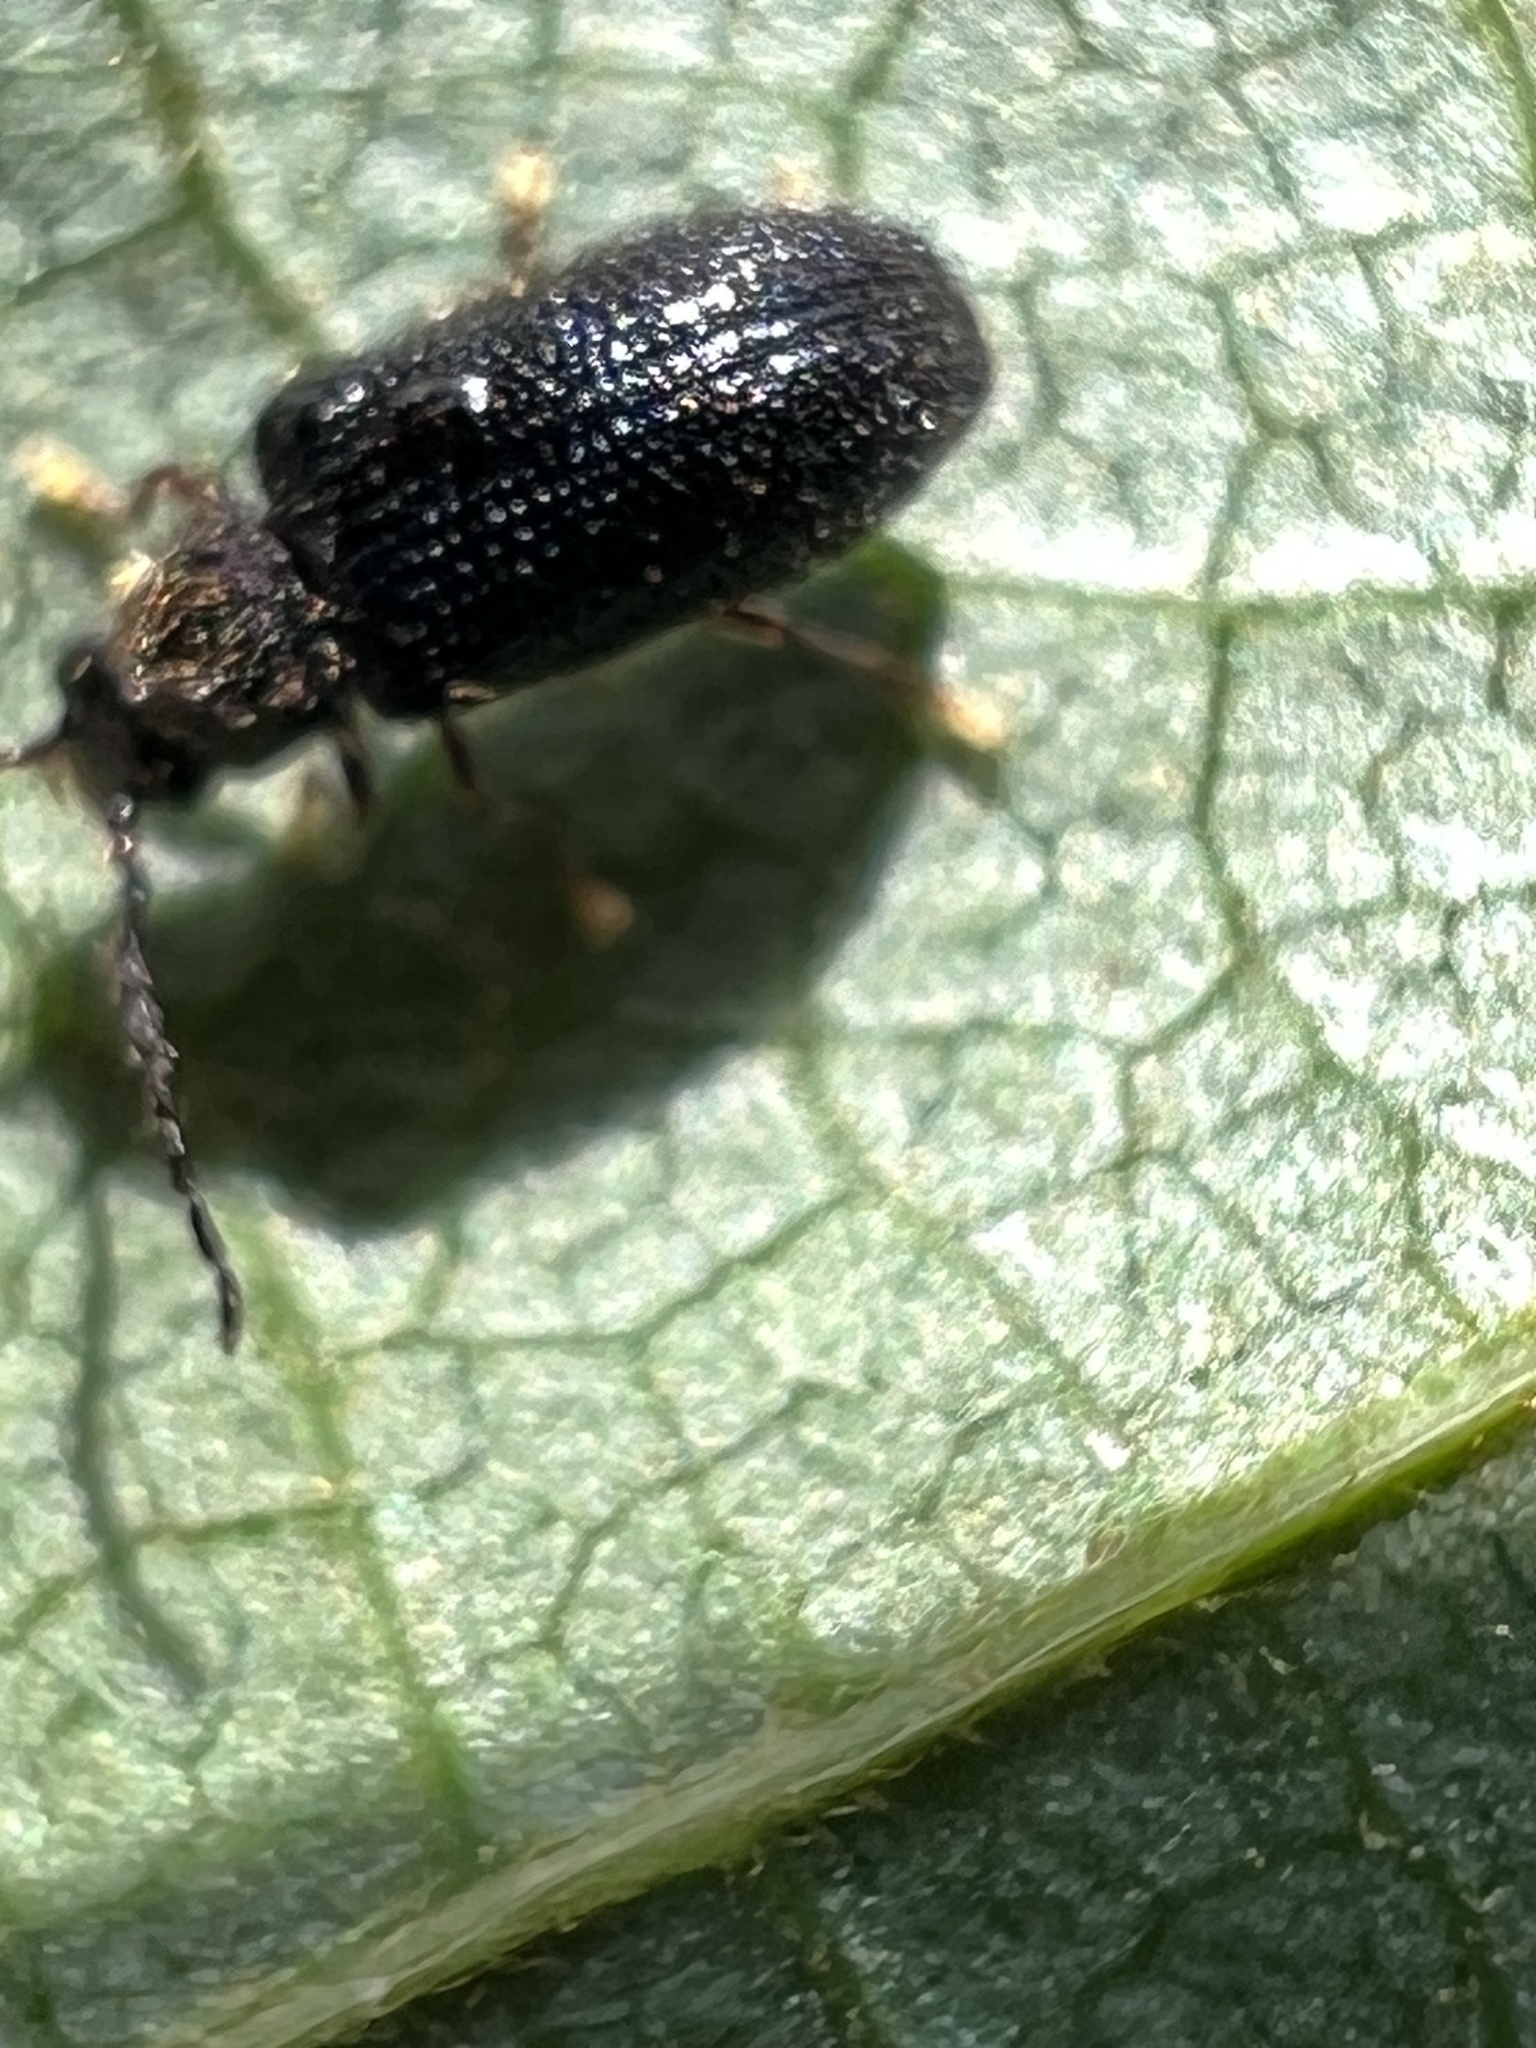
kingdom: Animalia
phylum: Arthropoda
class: Insecta
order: Coleoptera
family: Artematopodidae
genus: Eurypogon
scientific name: Eurypogon niger
